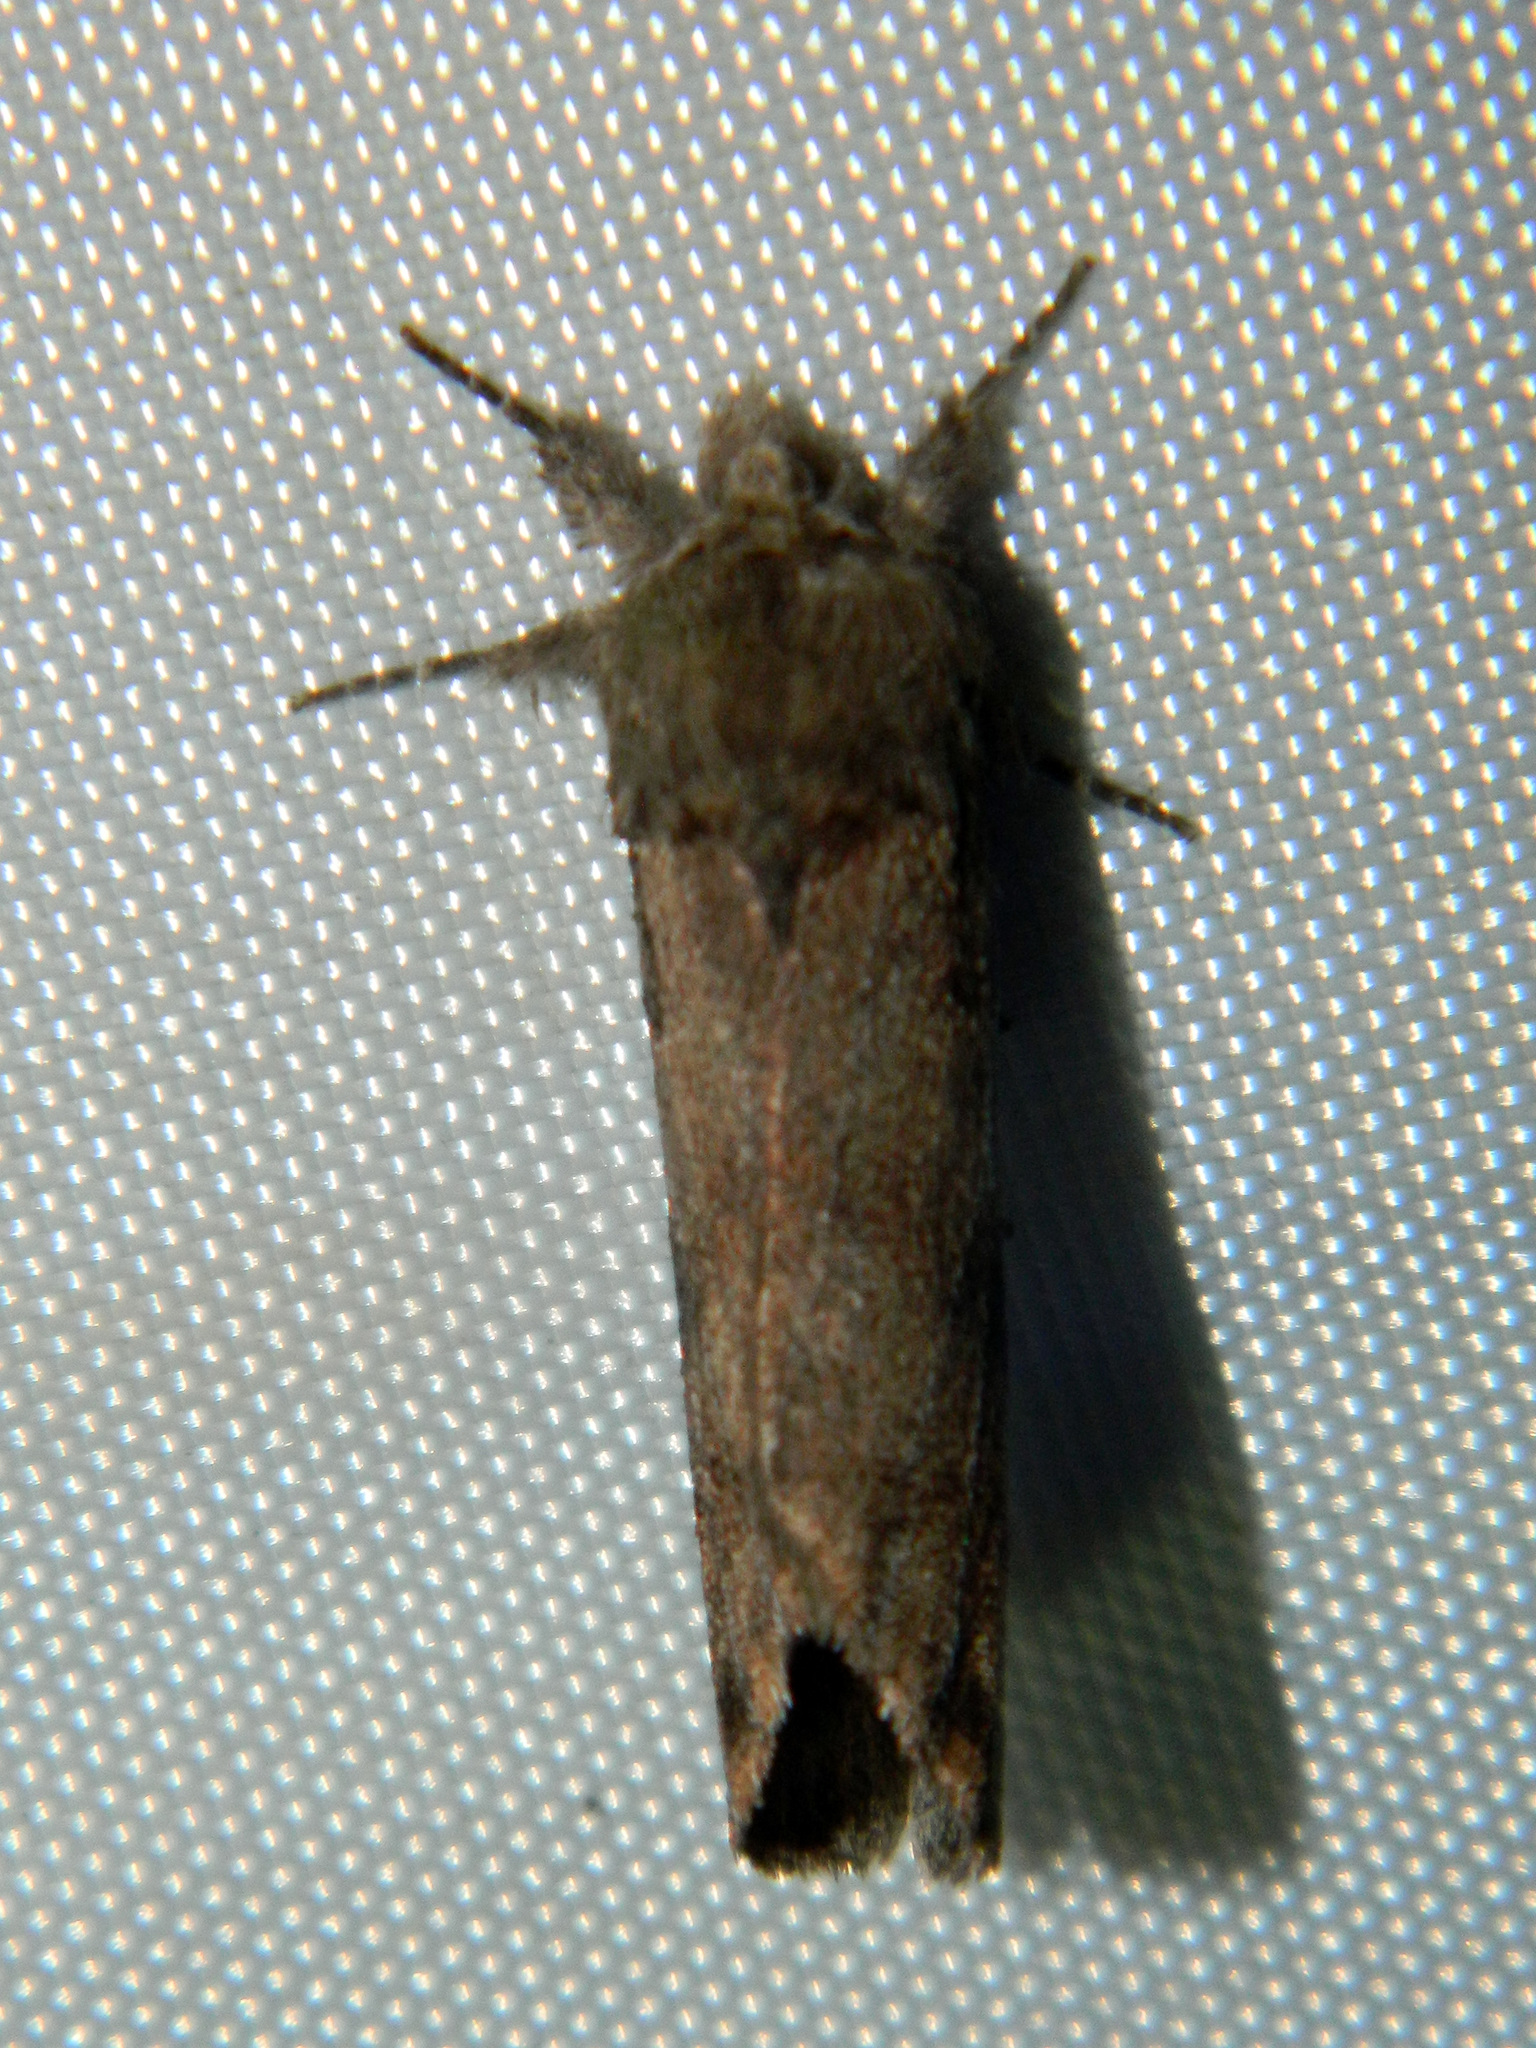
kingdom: Animalia
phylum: Arthropoda
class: Insecta
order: Lepidoptera
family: Notodontidae
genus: Schizura
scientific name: Schizura
